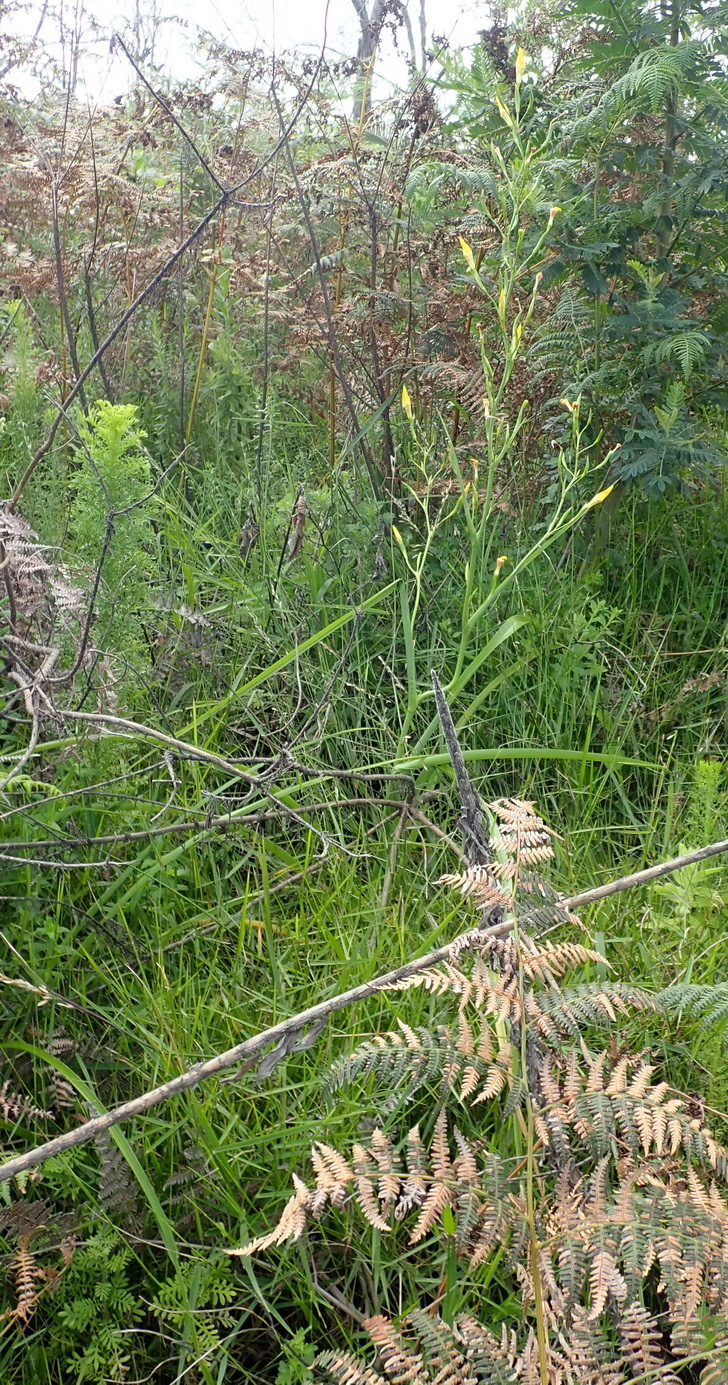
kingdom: Plantae
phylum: Tracheophyta
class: Liliopsida
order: Asparagales
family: Iridaceae
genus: Moraea
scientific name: Moraea ramosissima
